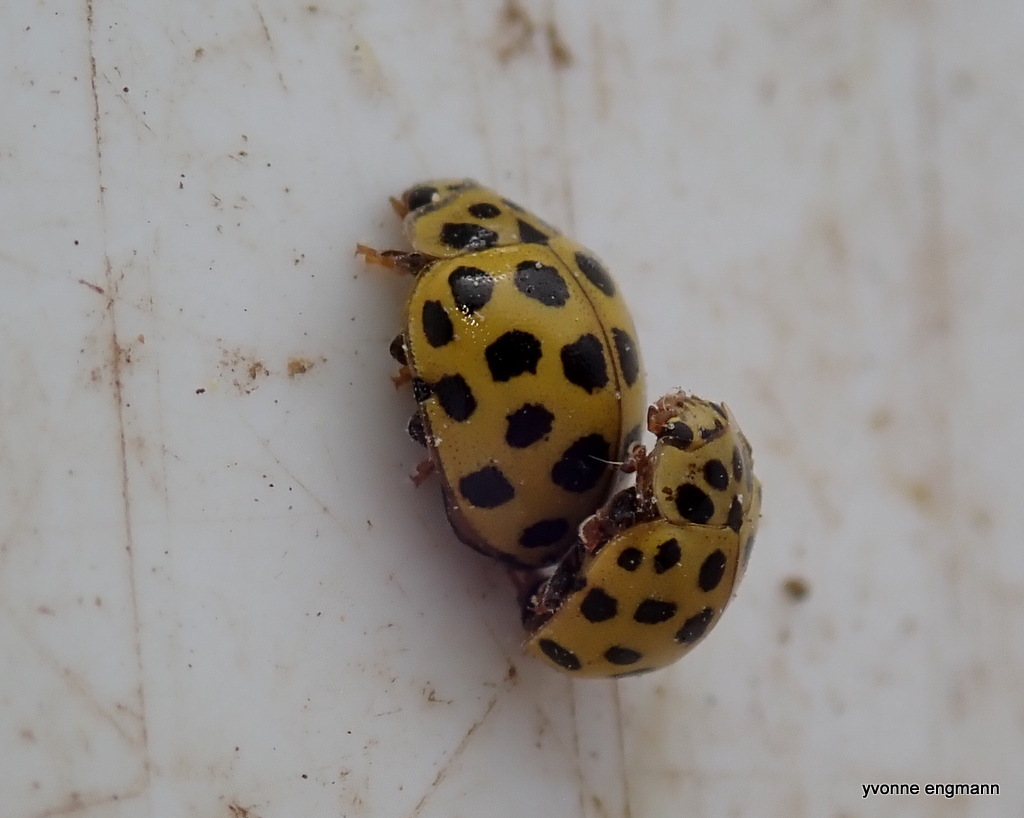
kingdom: Animalia
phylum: Arthropoda
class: Insecta
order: Coleoptera
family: Coccinellidae
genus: Psyllobora
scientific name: Psyllobora vigintiduopunctata
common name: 22-spot ladybird
